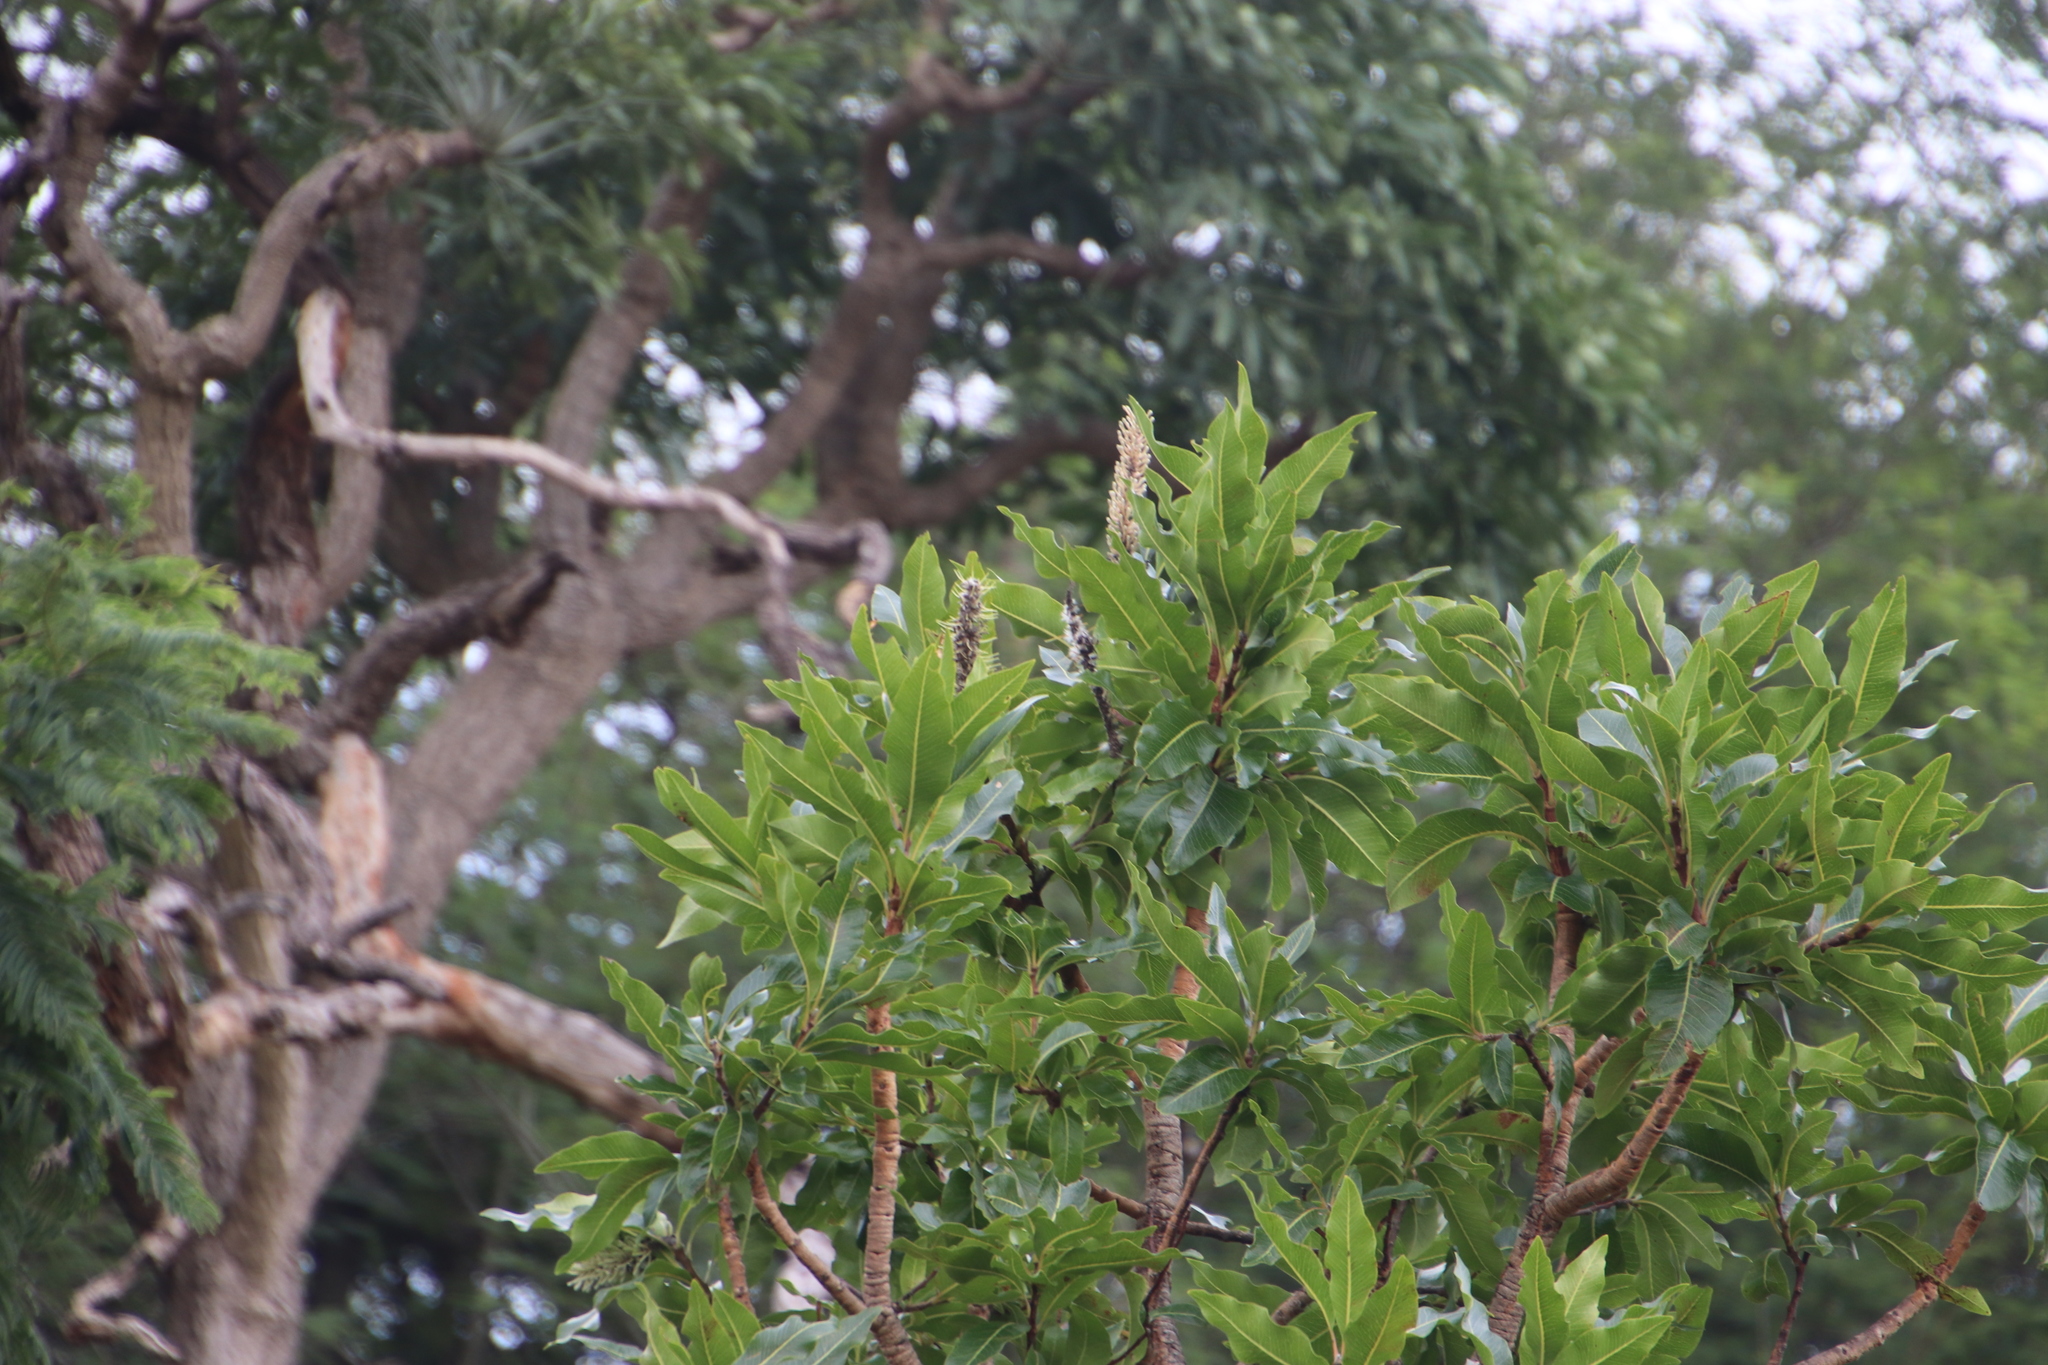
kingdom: Plantae
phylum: Tracheophyta
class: Magnoliopsida
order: Proteales
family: Proteaceae
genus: Faurea
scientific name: Faurea rochetiana
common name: Broad-leaved beech
